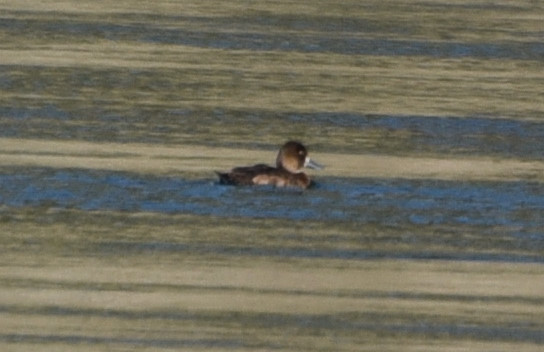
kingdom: Animalia
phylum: Chordata
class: Aves
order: Anseriformes
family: Anatidae
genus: Aythya
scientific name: Aythya affinis
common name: Lesser scaup
